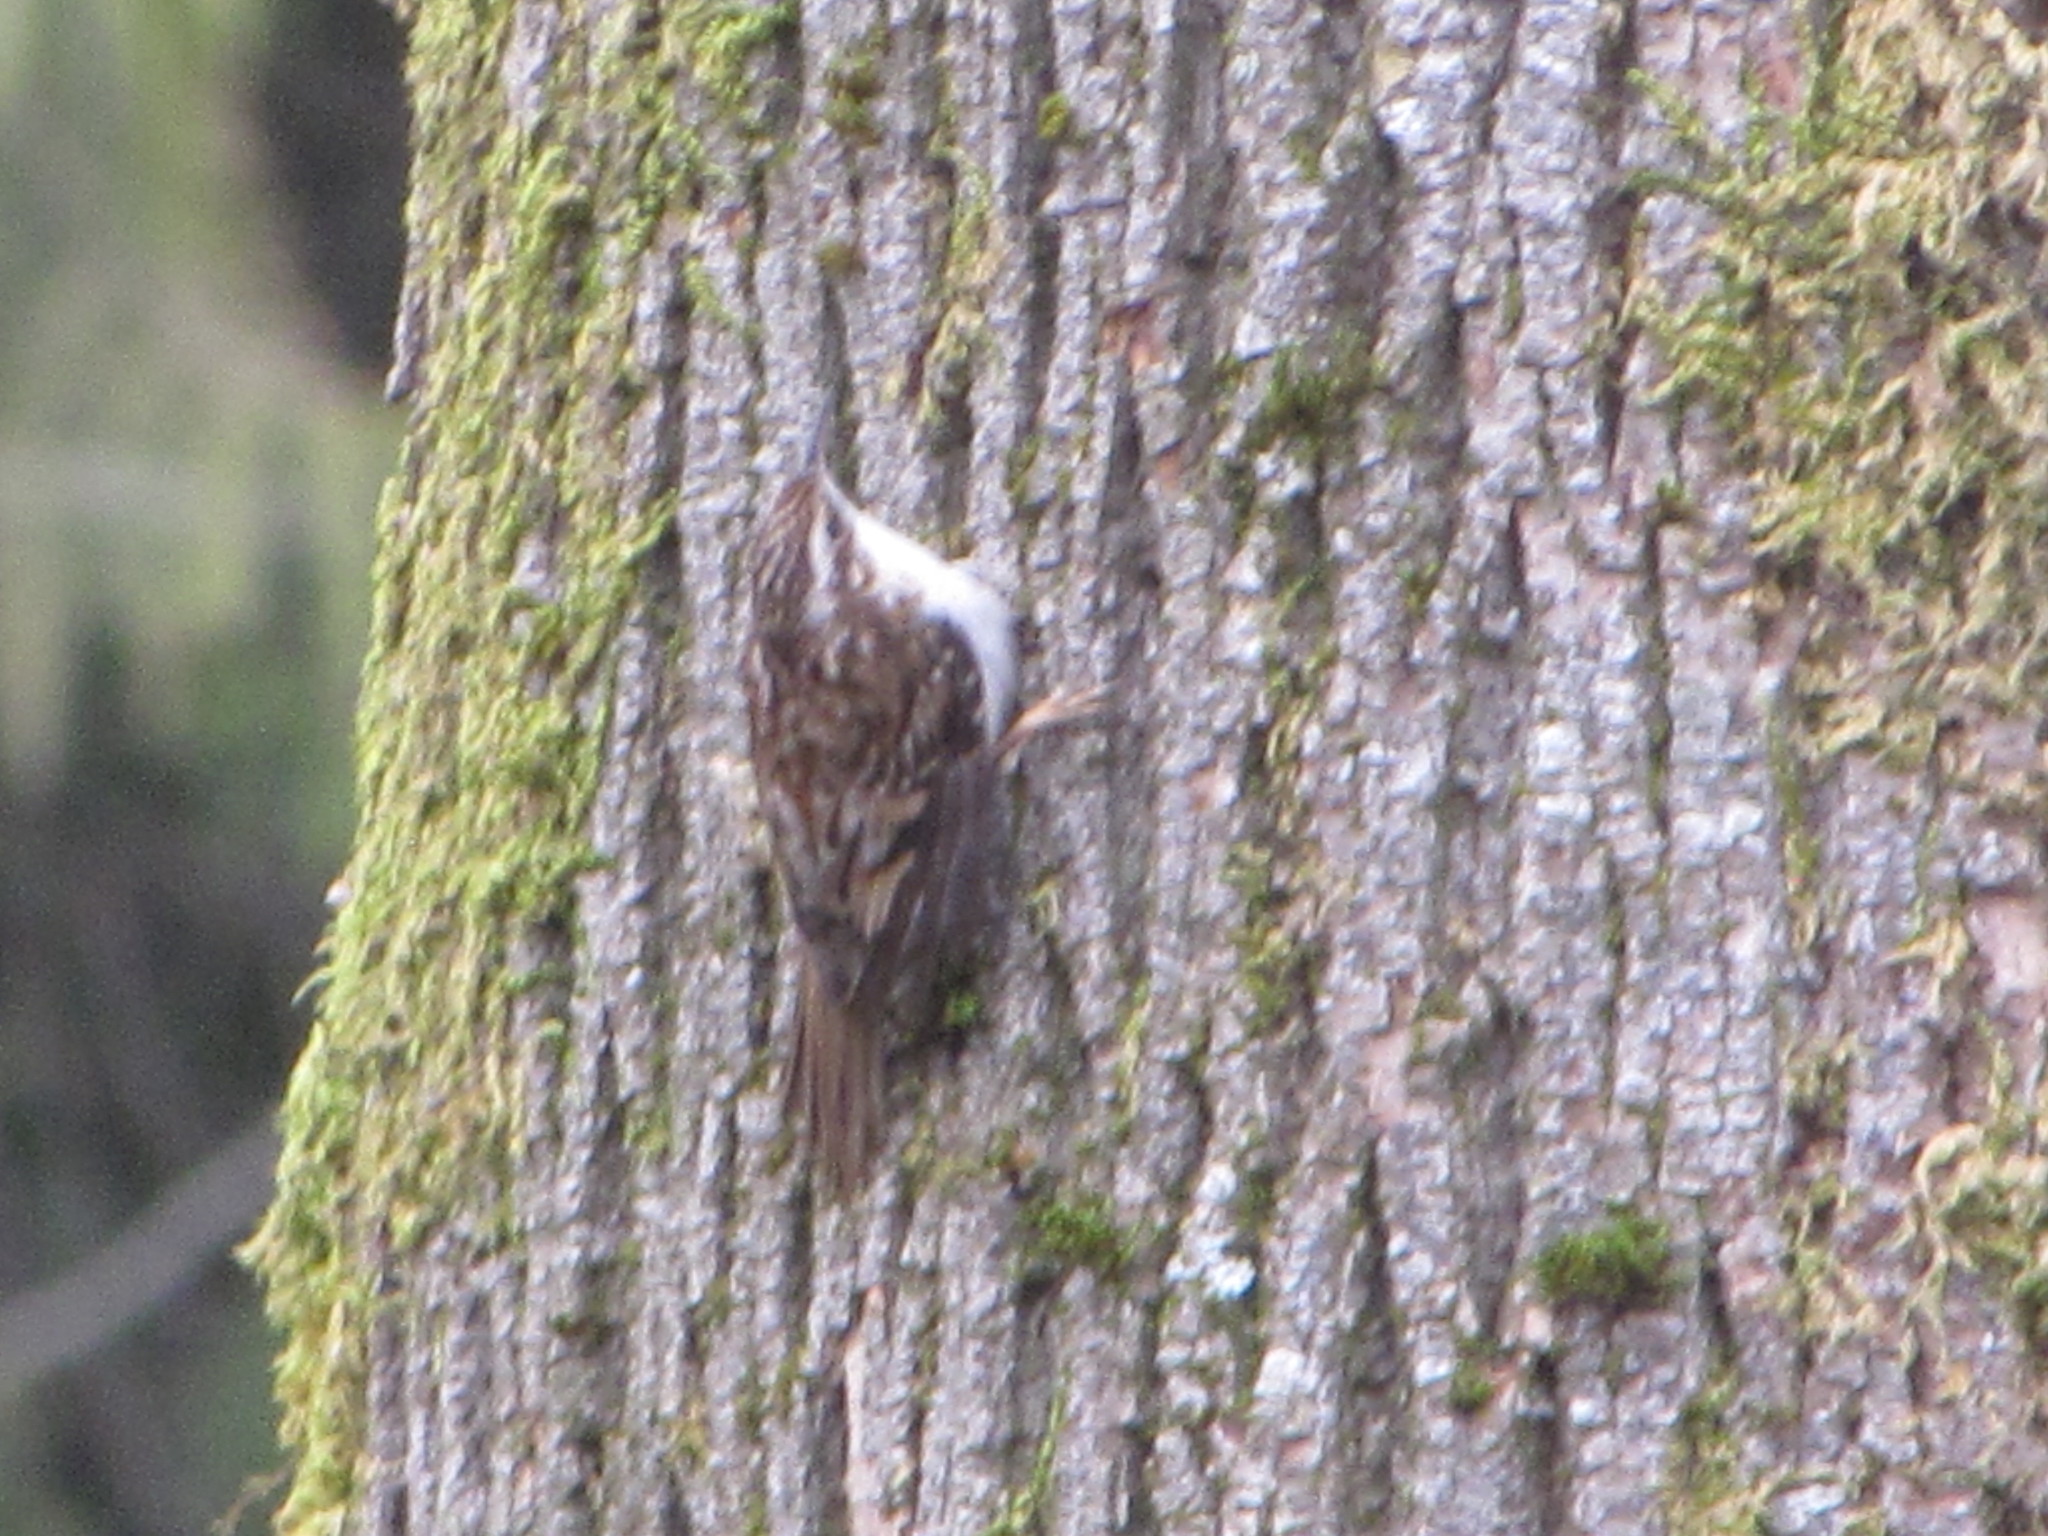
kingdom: Animalia
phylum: Chordata
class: Aves
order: Passeriformes
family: Certhiidae
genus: Certhia
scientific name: Certhia americana
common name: Brown creeper
